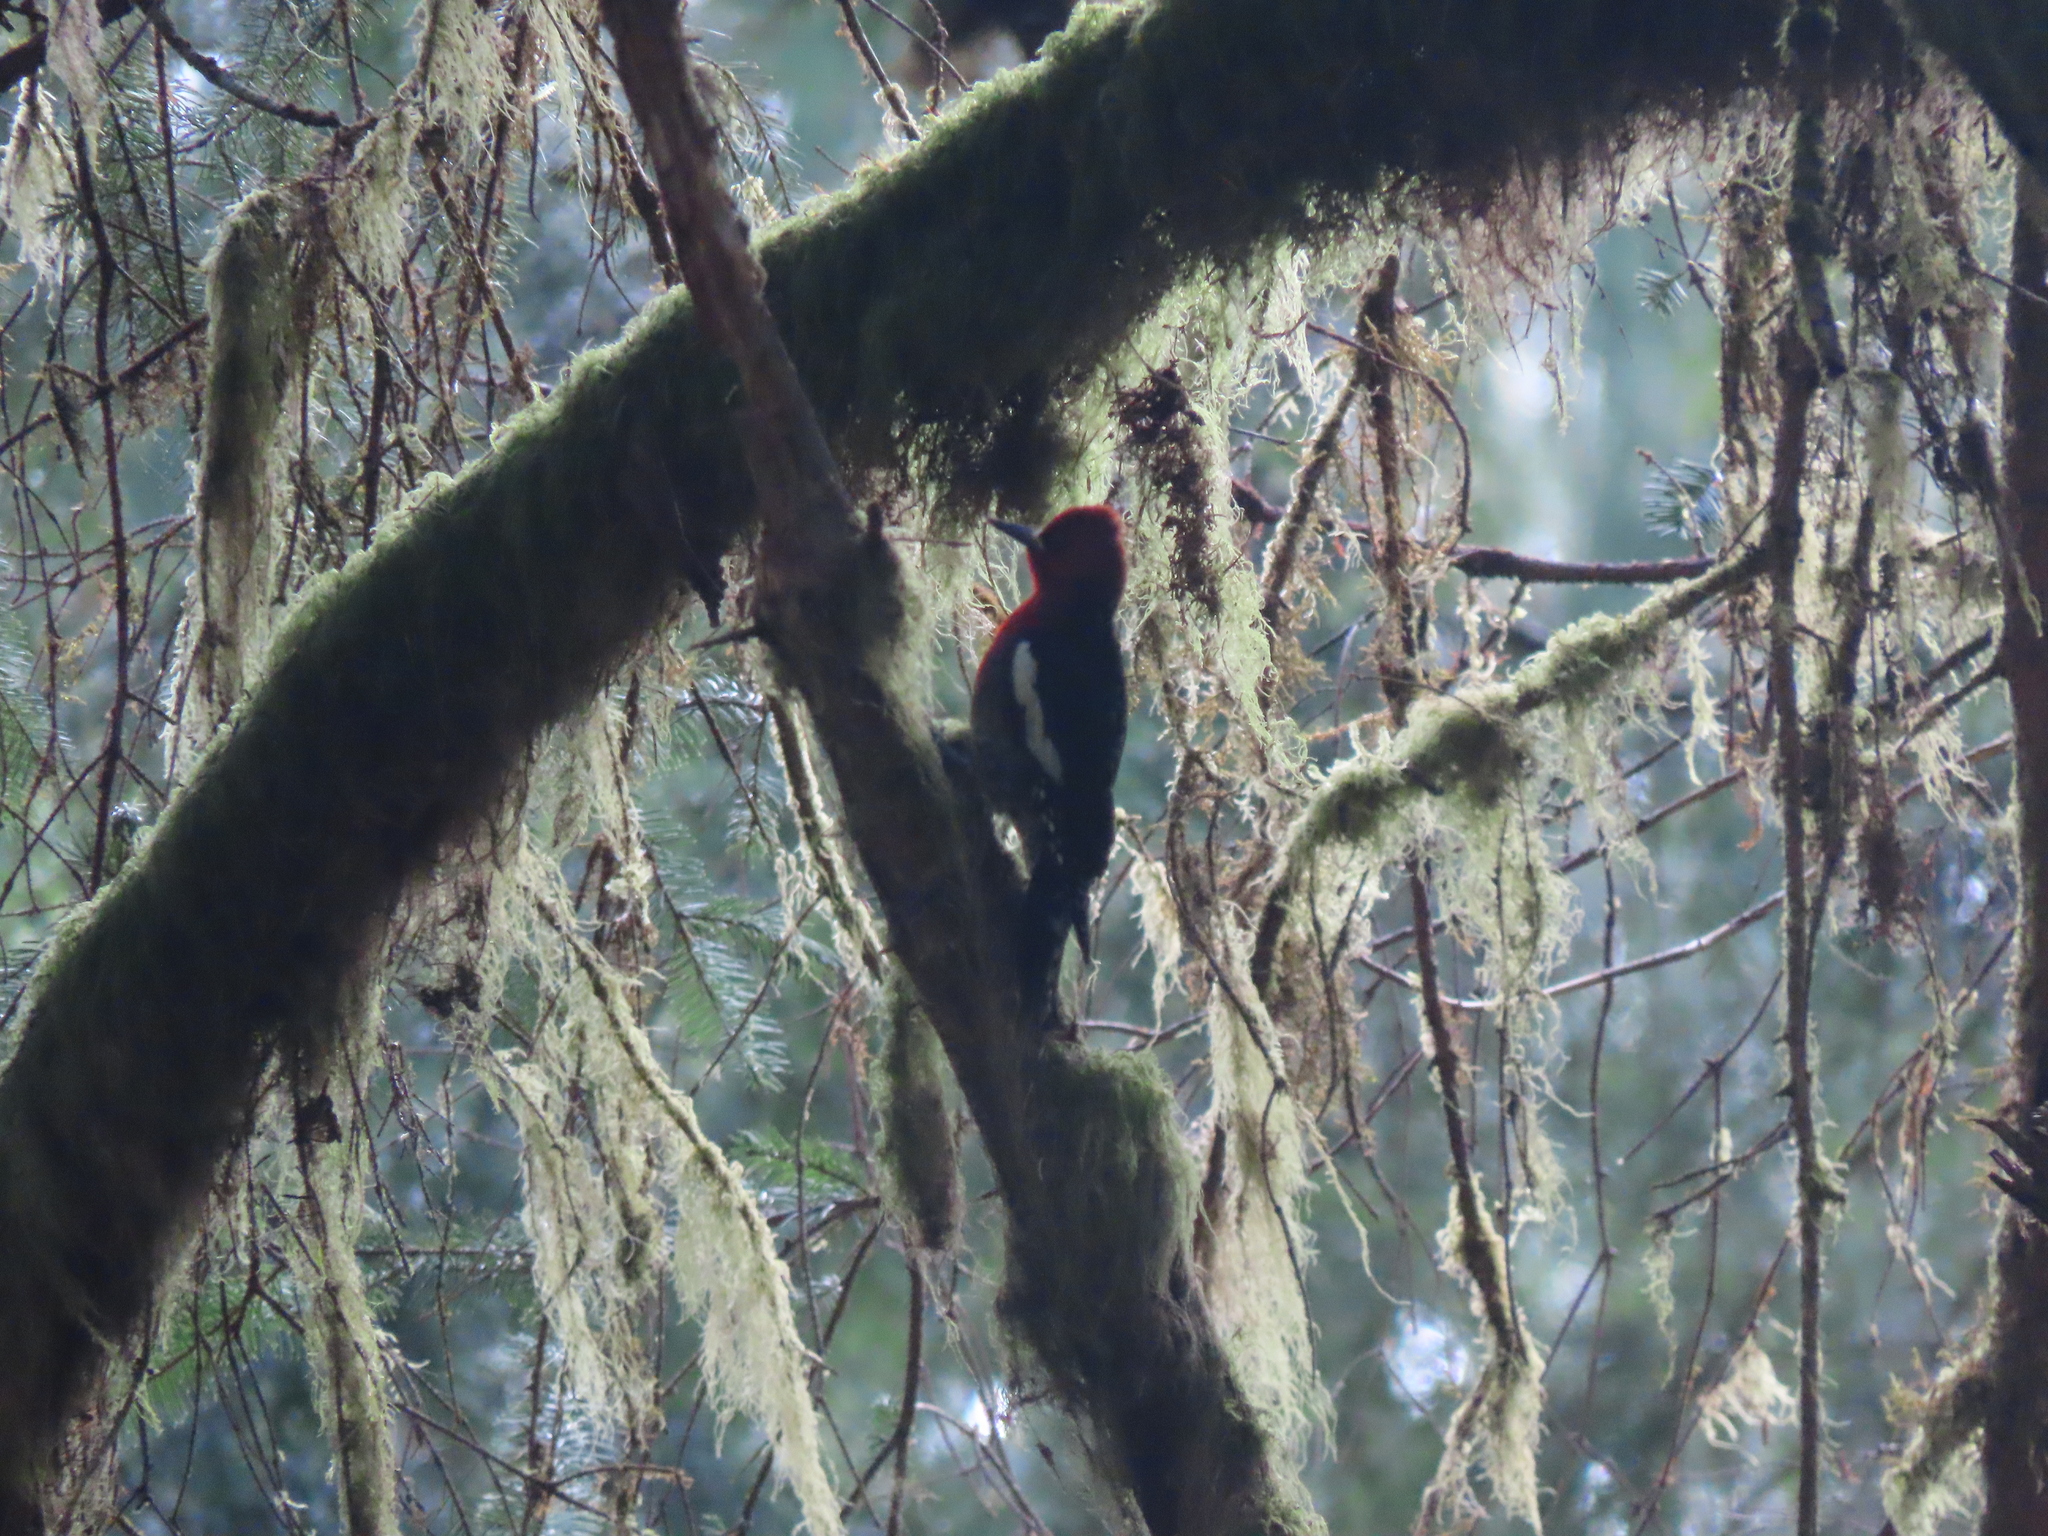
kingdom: Animalia
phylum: Chordata
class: Aves
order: Piciformes
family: Picidae
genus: Sphyrapicus
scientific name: Sphyrapicus ruber
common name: Red-breasted sapsucker
